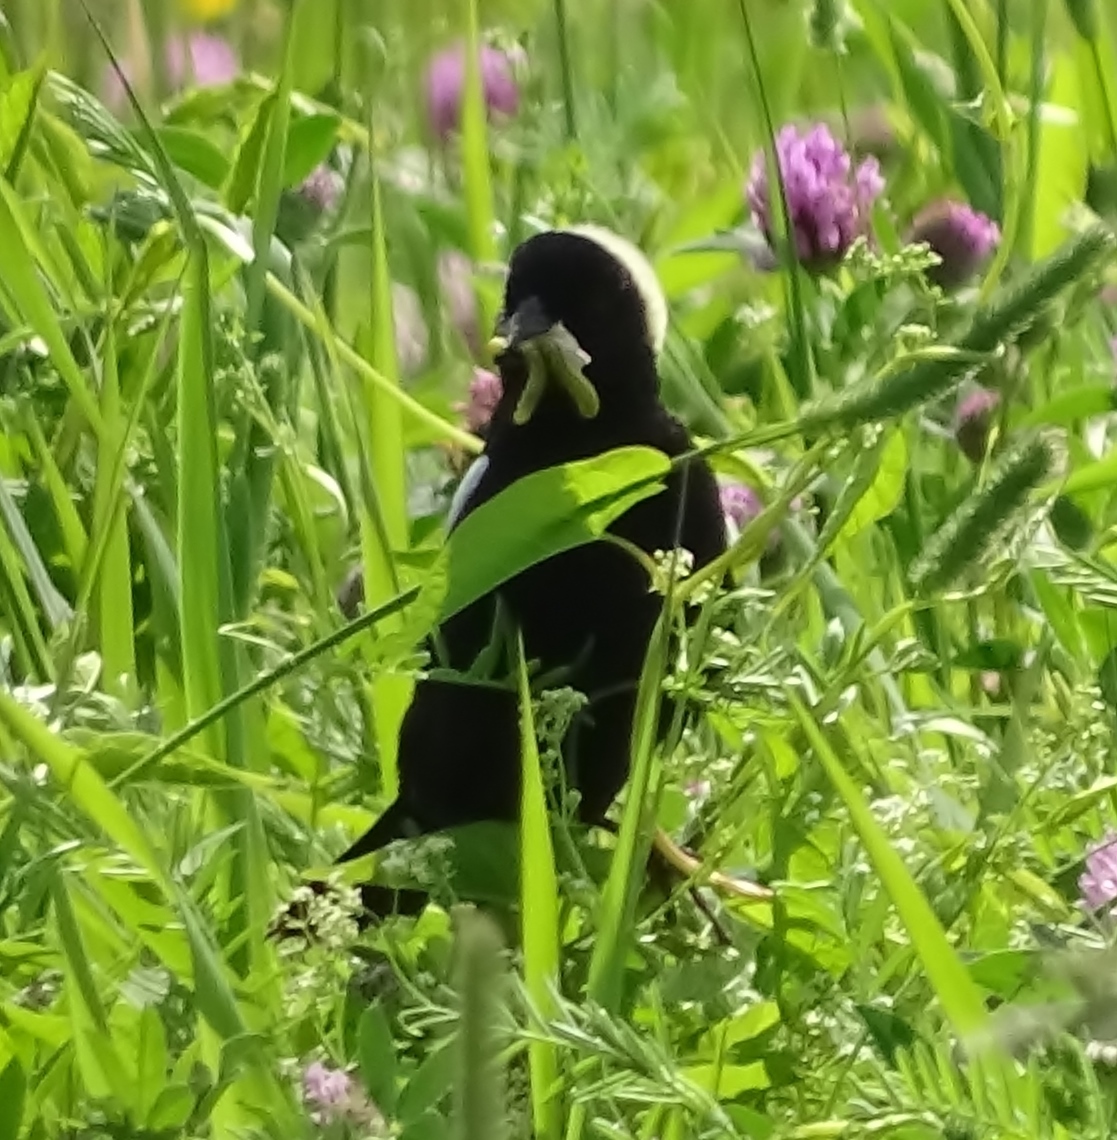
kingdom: Animalia
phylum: Chordata
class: Aves
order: Passeriformes
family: Icteridae
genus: Dolichonyx
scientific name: Dolichonyx oryzivorus
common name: Bobolink
